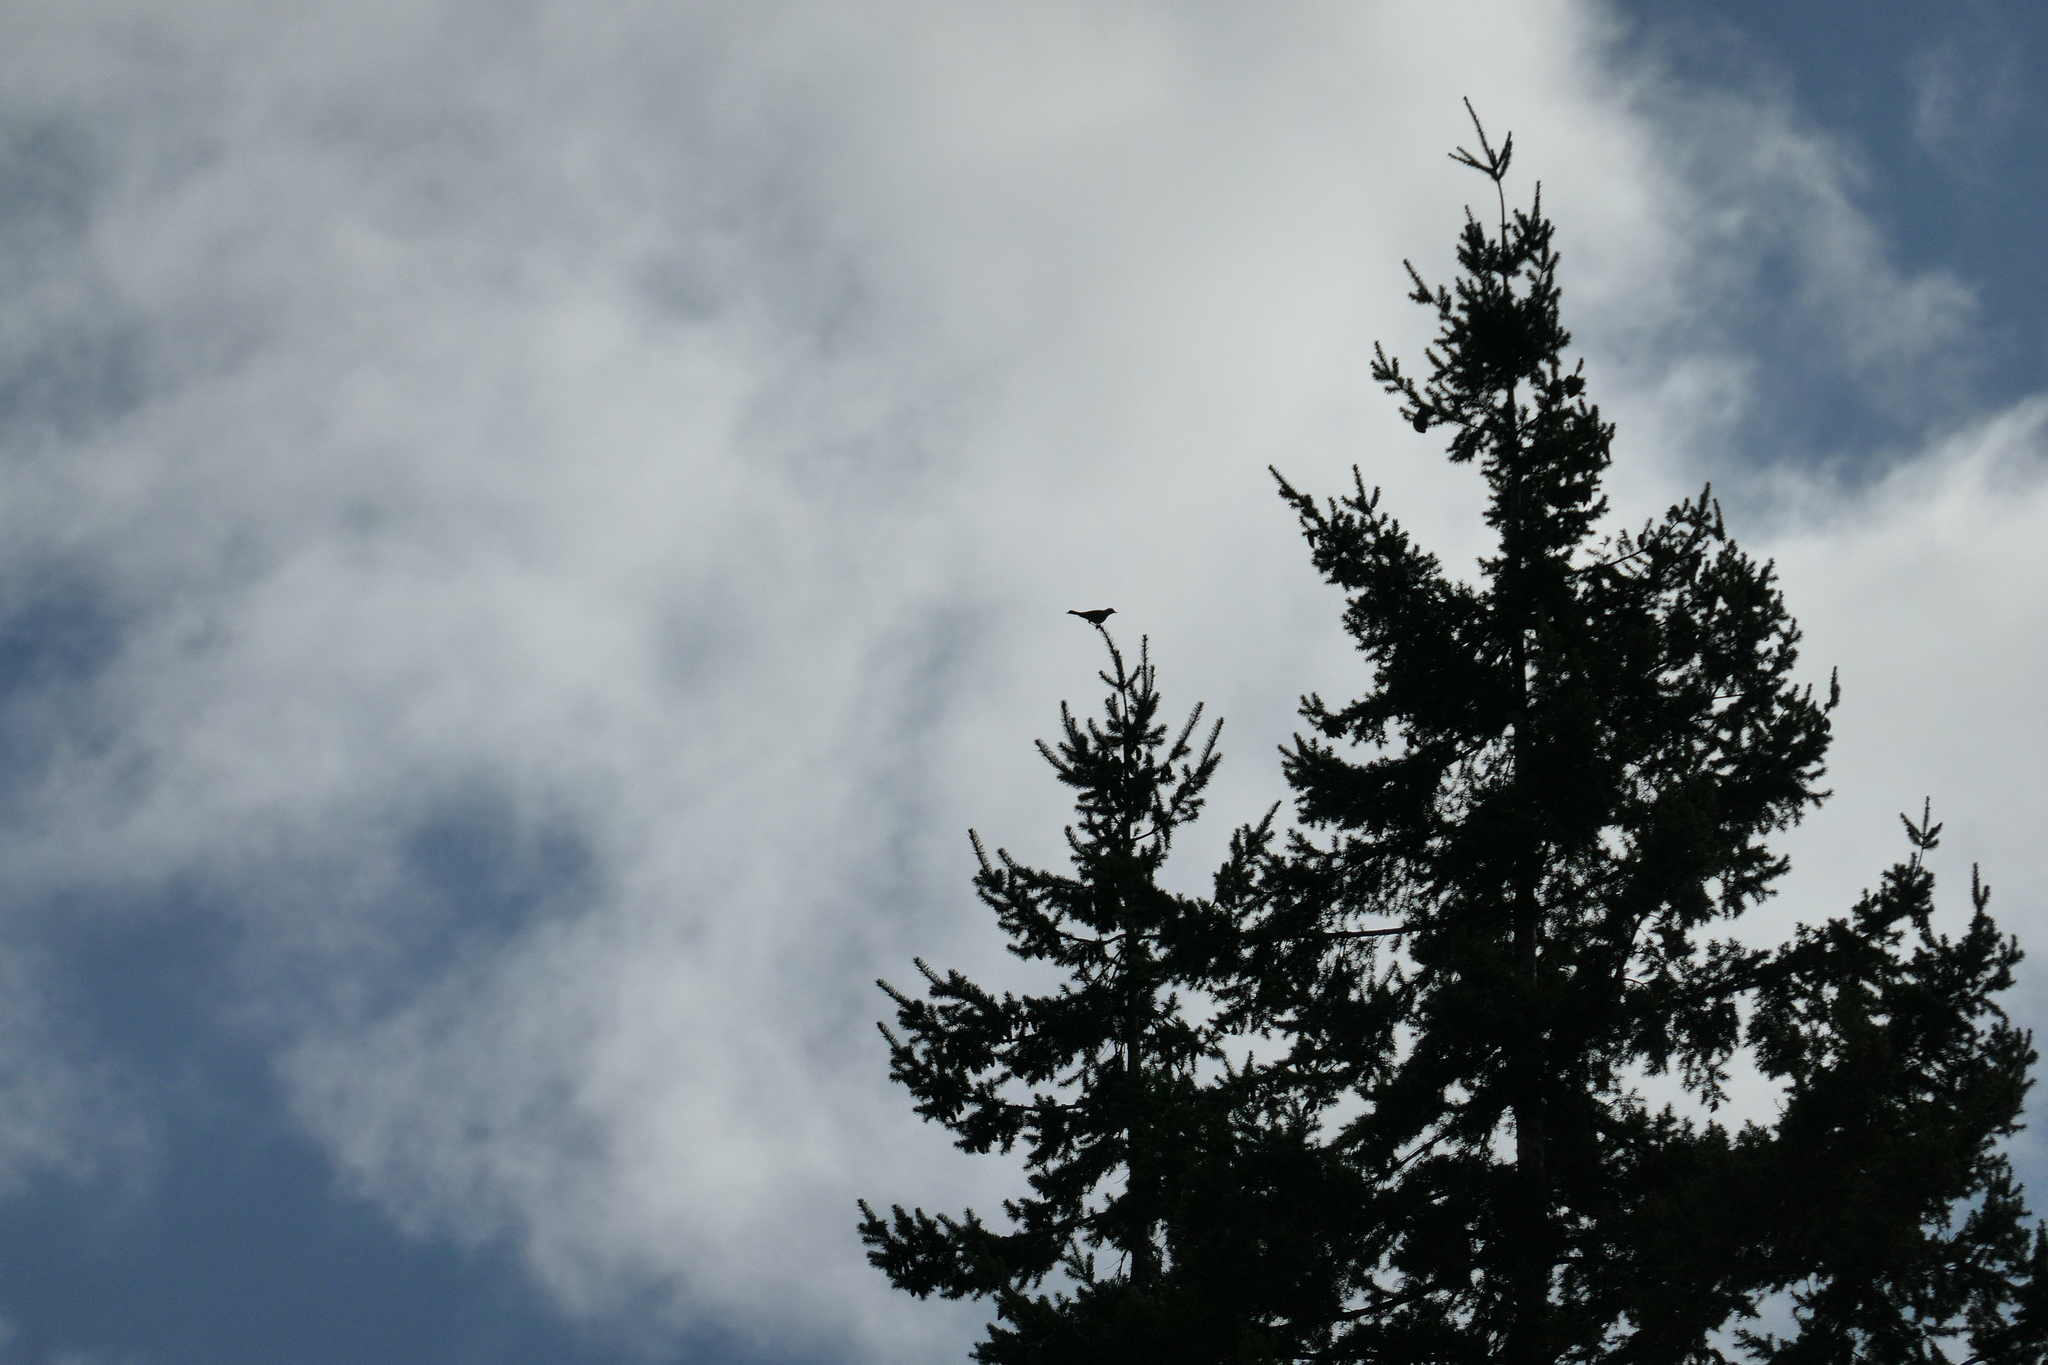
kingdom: Animalia
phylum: Chordata
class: Aves
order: Passeriformes
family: Turdidae
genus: Turdus
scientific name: Turdus migratorius
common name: American robin
